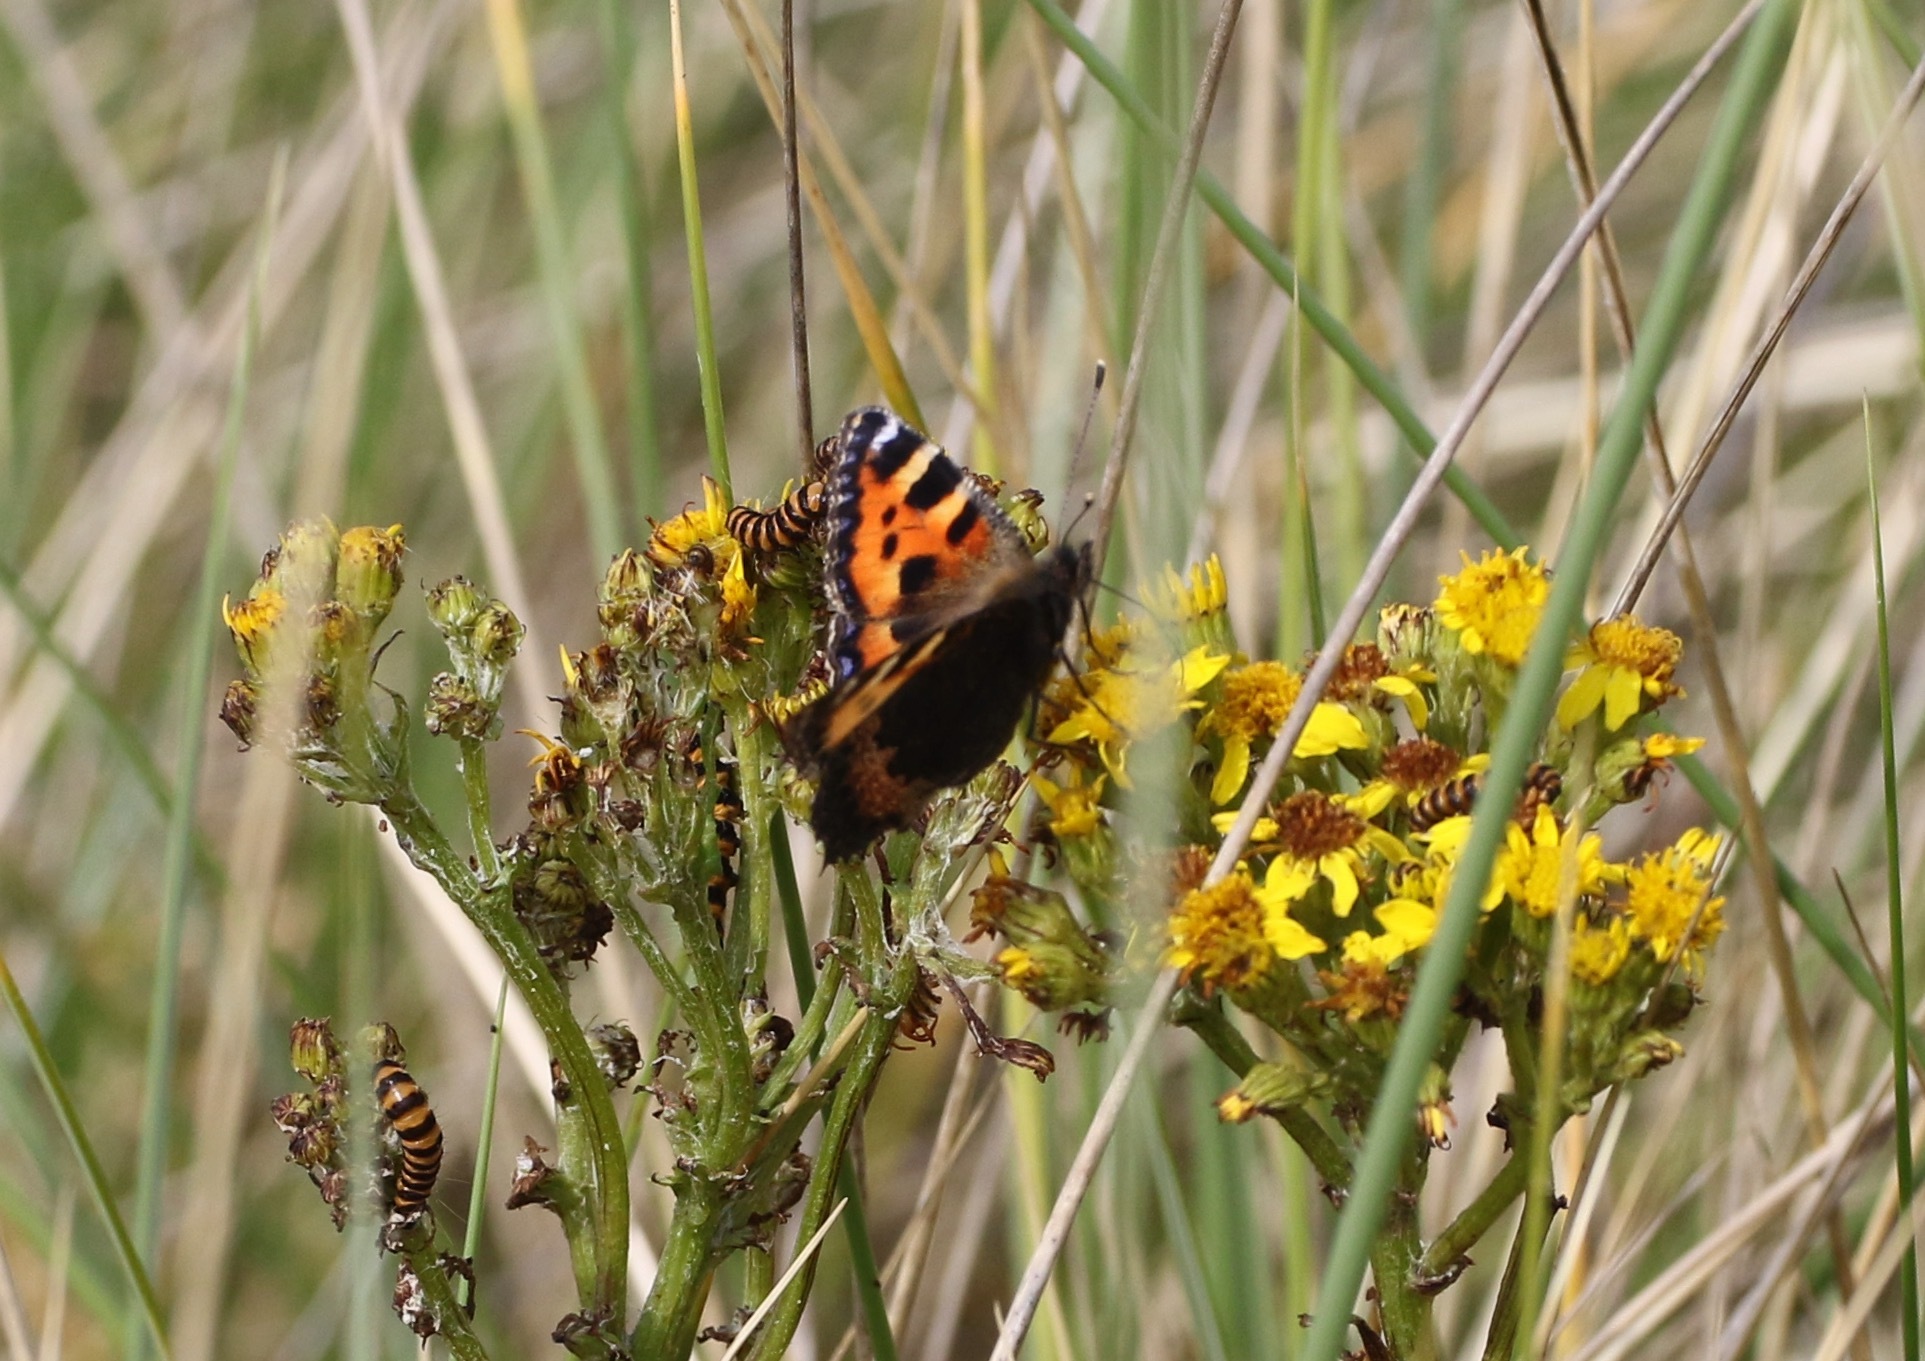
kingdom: Animalia
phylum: Arthropoda
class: Insecta
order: Lepidoptera
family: Nymphalidae
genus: Aglais
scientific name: Aglais urticae
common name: Small tortoiseshell
